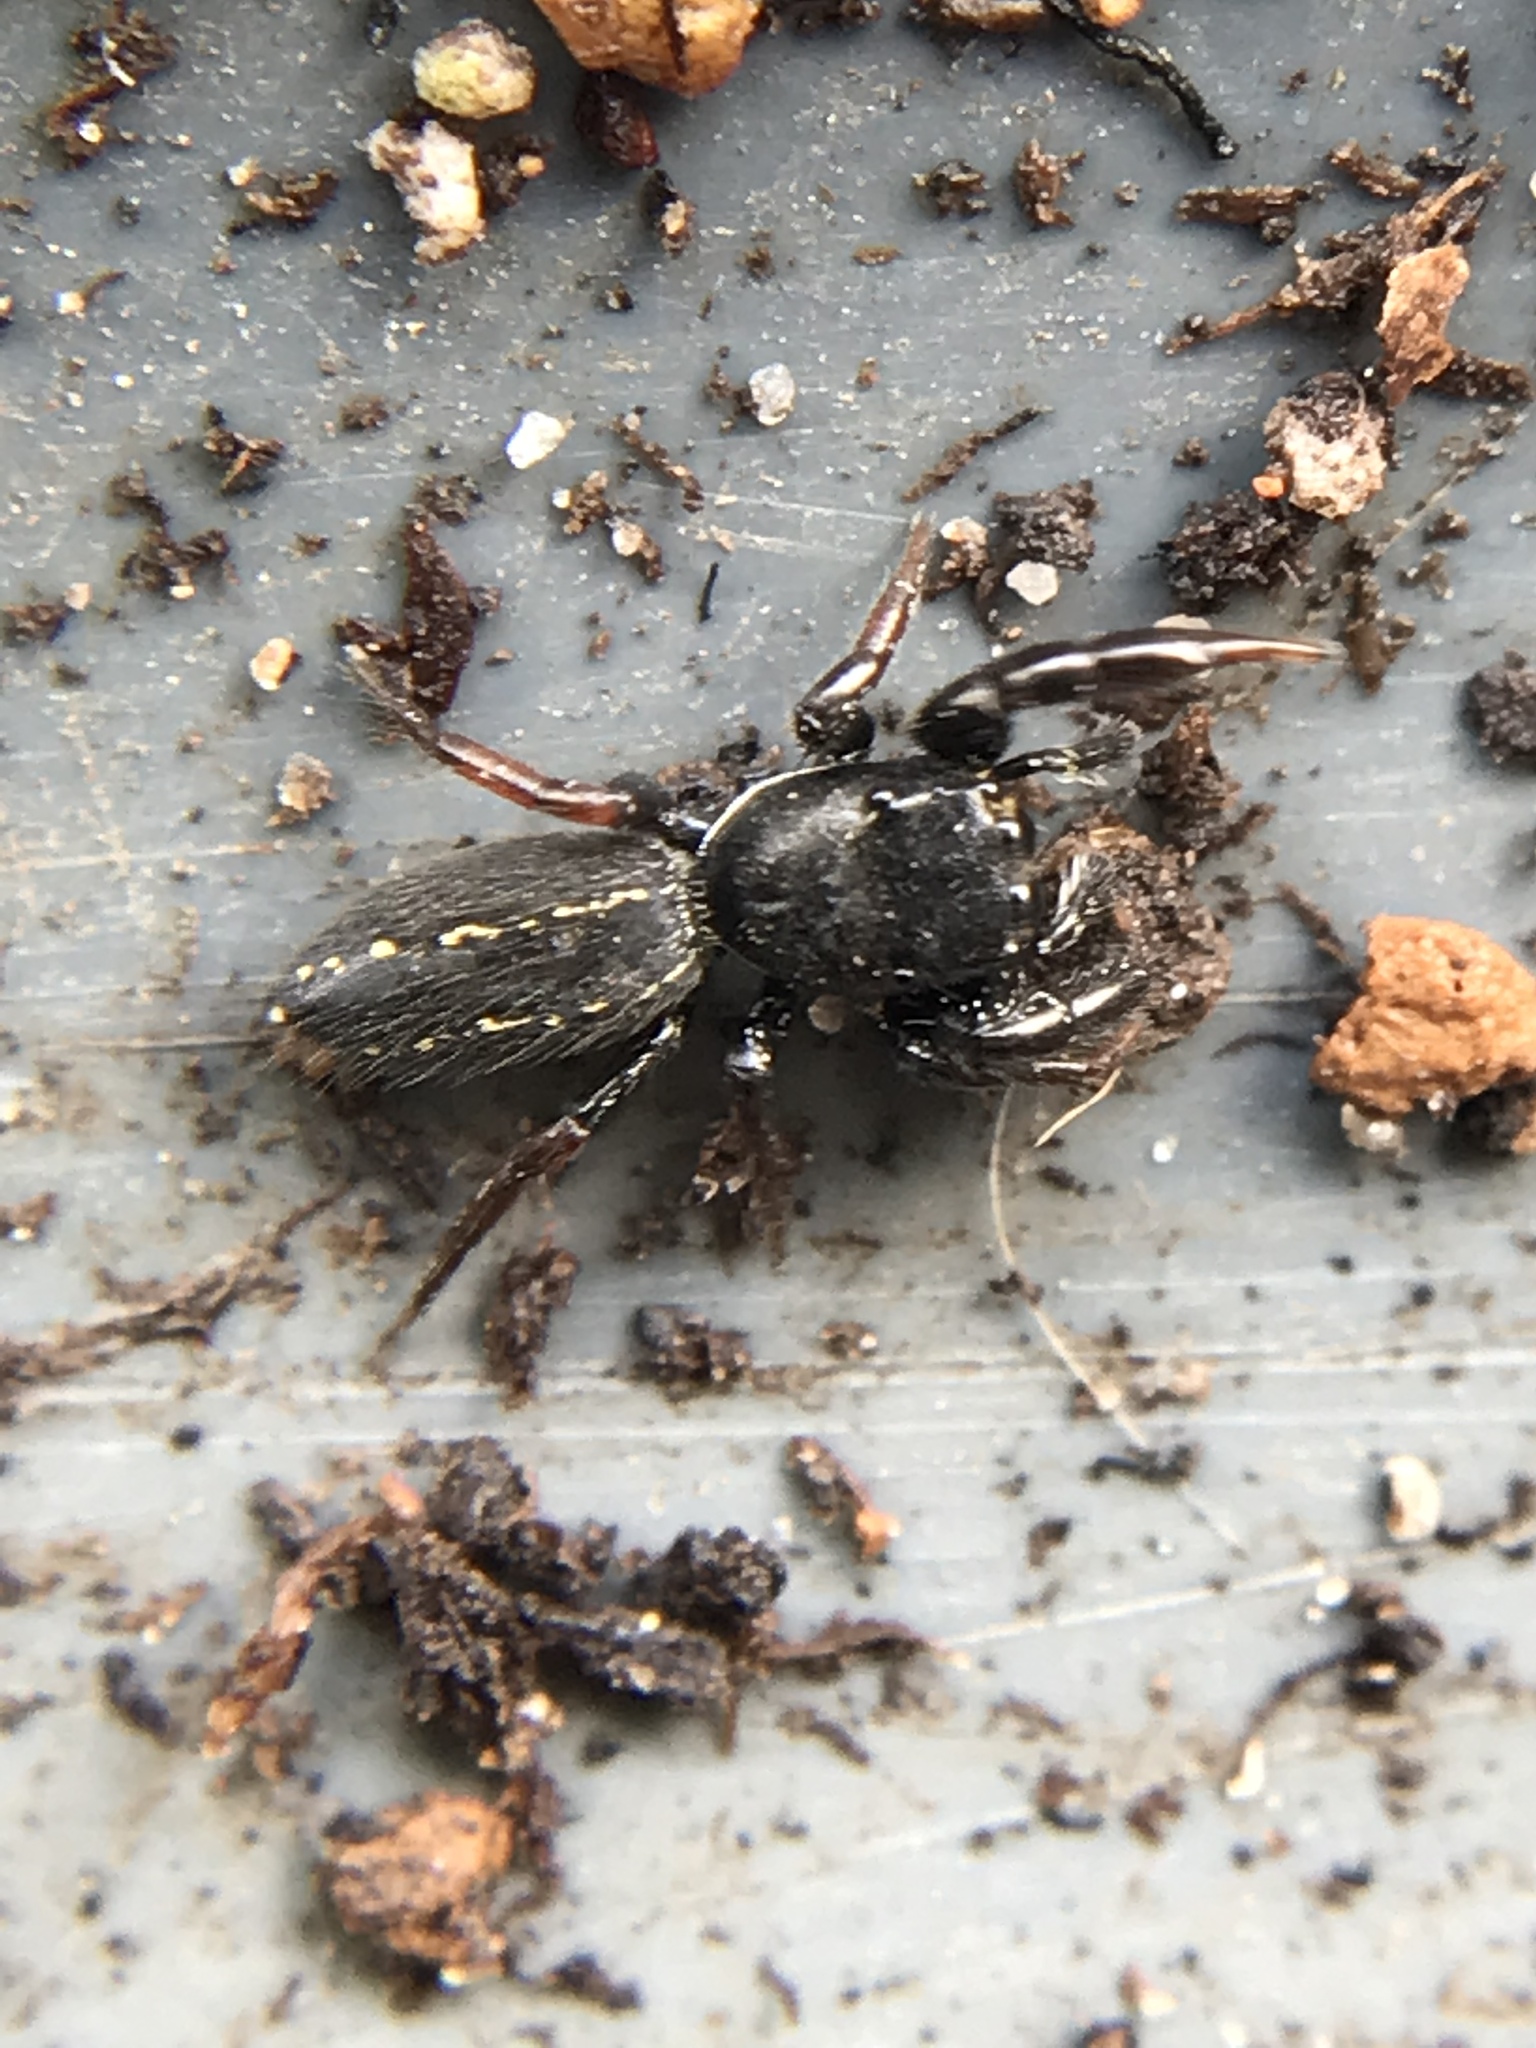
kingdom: Animalia
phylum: Arthropoda
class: Arachnida
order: Araneae
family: Salticidae
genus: Metacyrba
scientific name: Metacyrba taeniola
